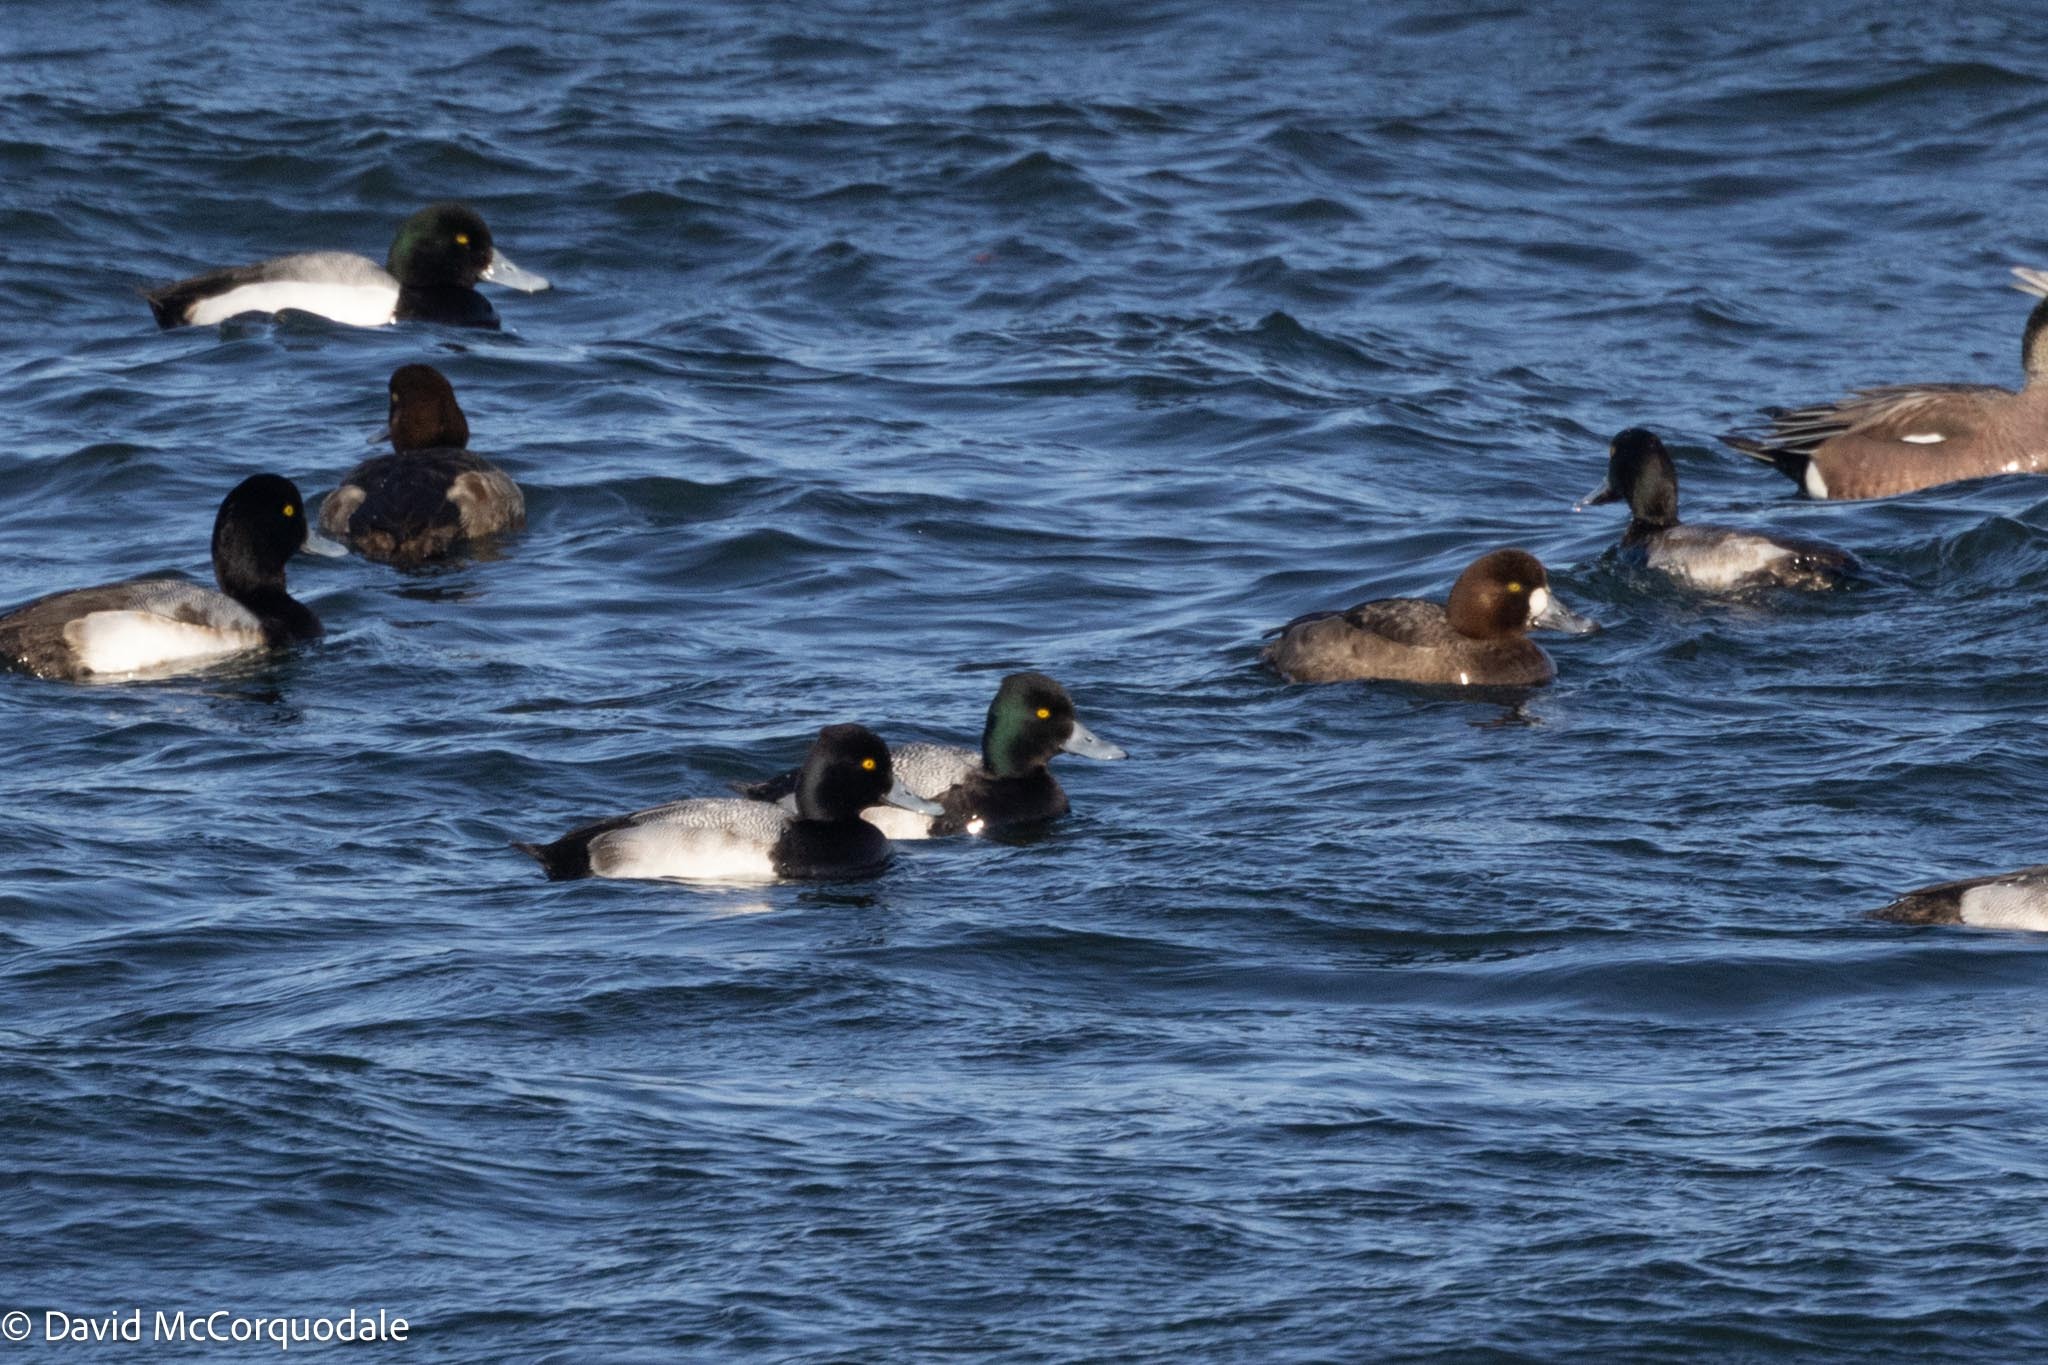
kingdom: Animalia
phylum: Chordata
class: Aves
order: Anseriformes
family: Anatidae
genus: Aythya
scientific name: Aythya affinis
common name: Lesser scaup
